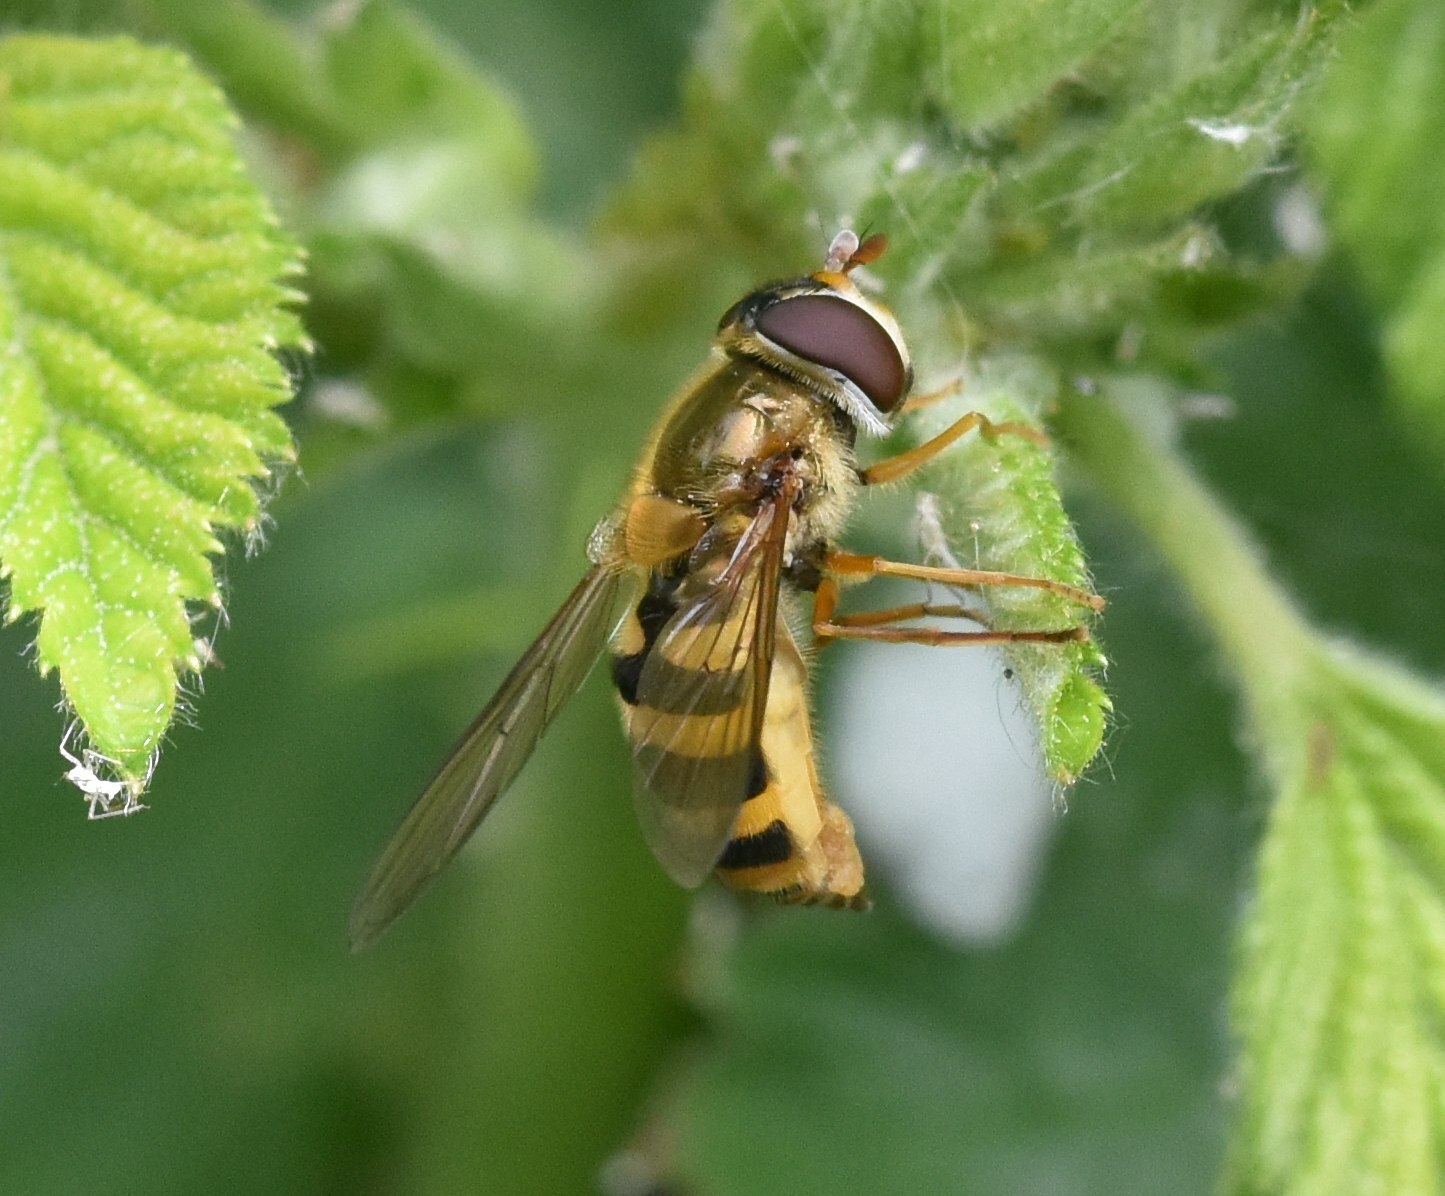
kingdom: Animalia
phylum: Arthropoda
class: Insecta
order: Diptera
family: Syrphidae
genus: Syrphus
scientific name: Syrphus ribesii
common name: Common flower fly
